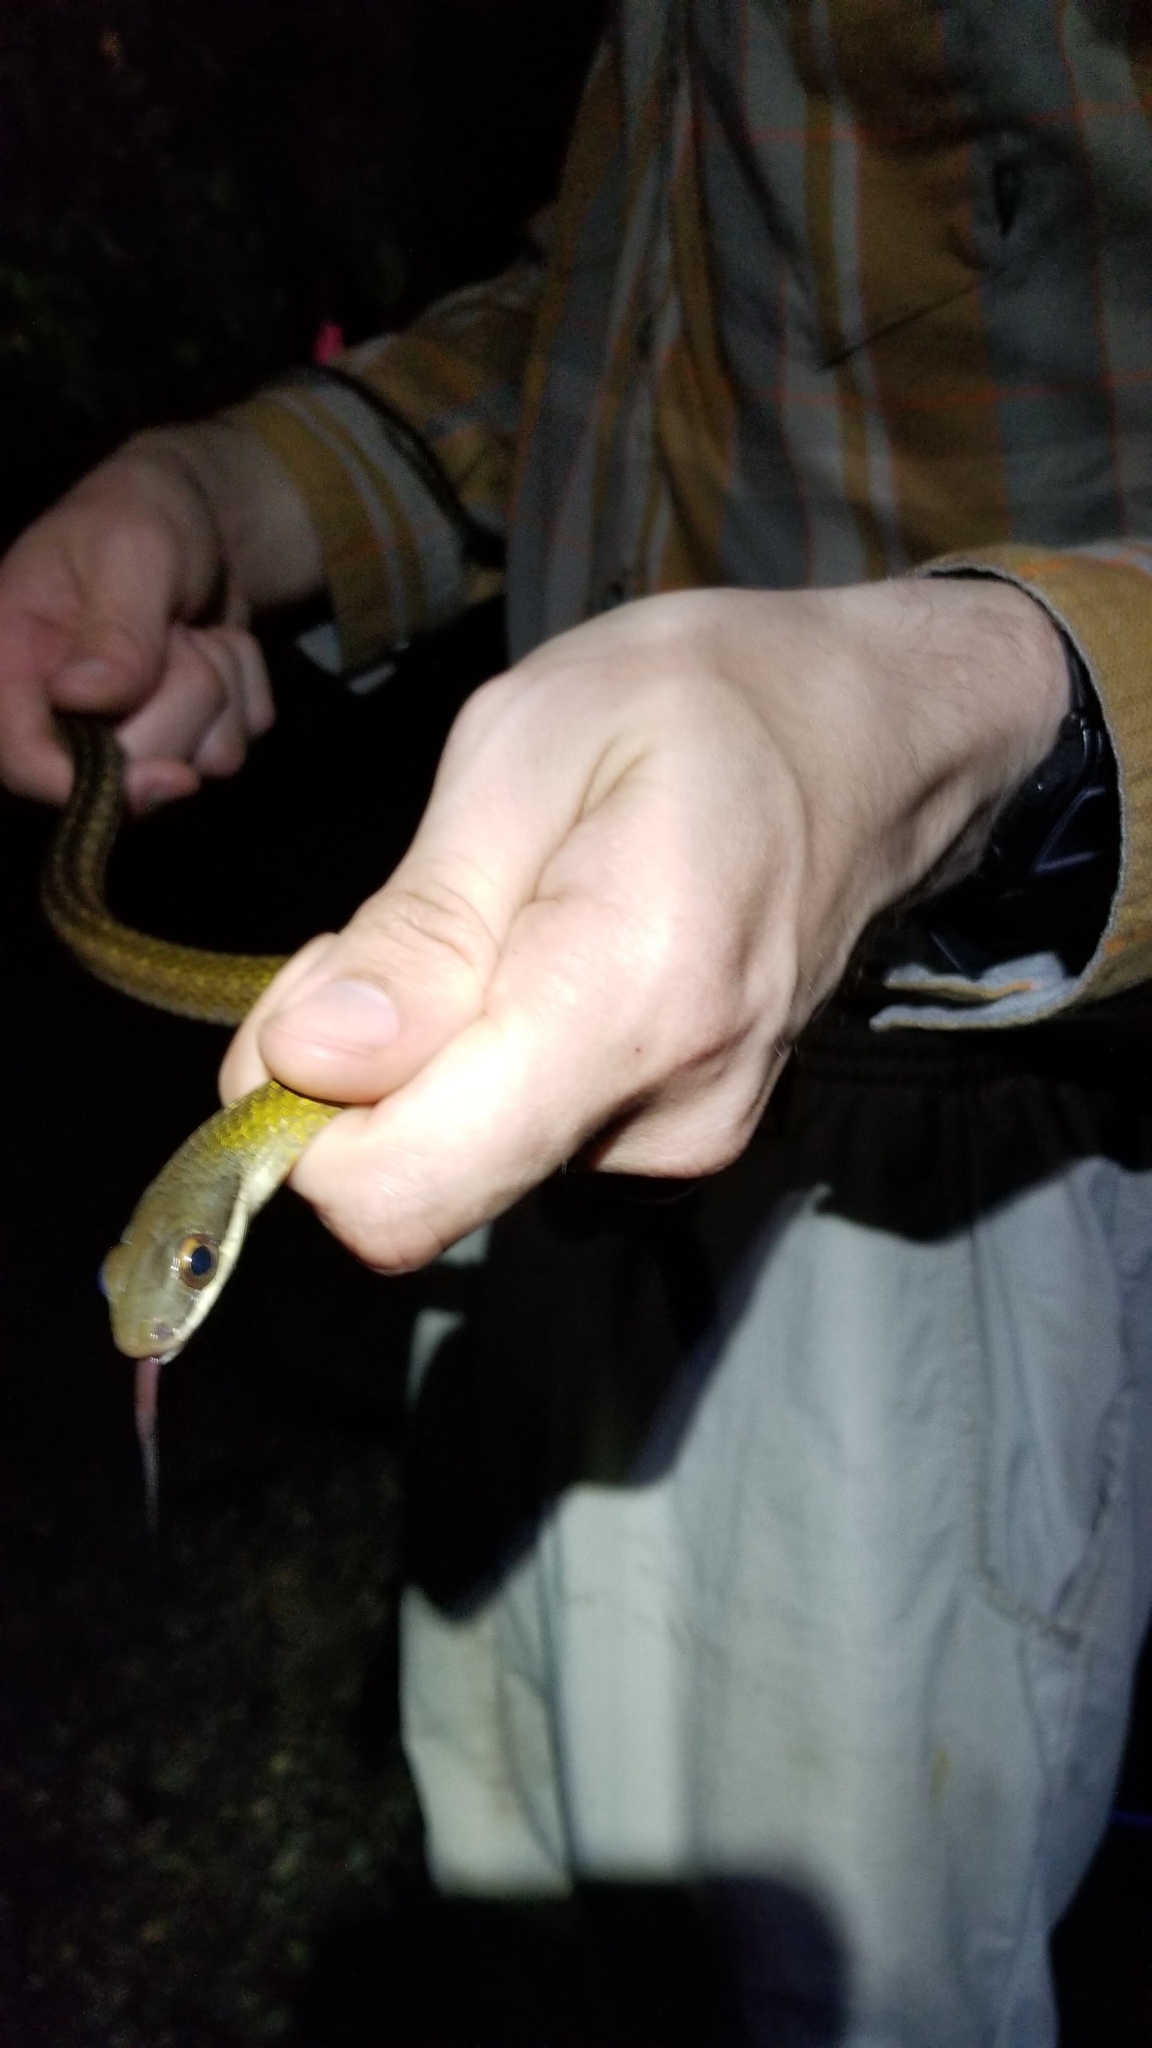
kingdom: Animalia
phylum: Chordata
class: Squamata
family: Colubridae
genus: Mastigodryas
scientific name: Mastigodryas alternatus
